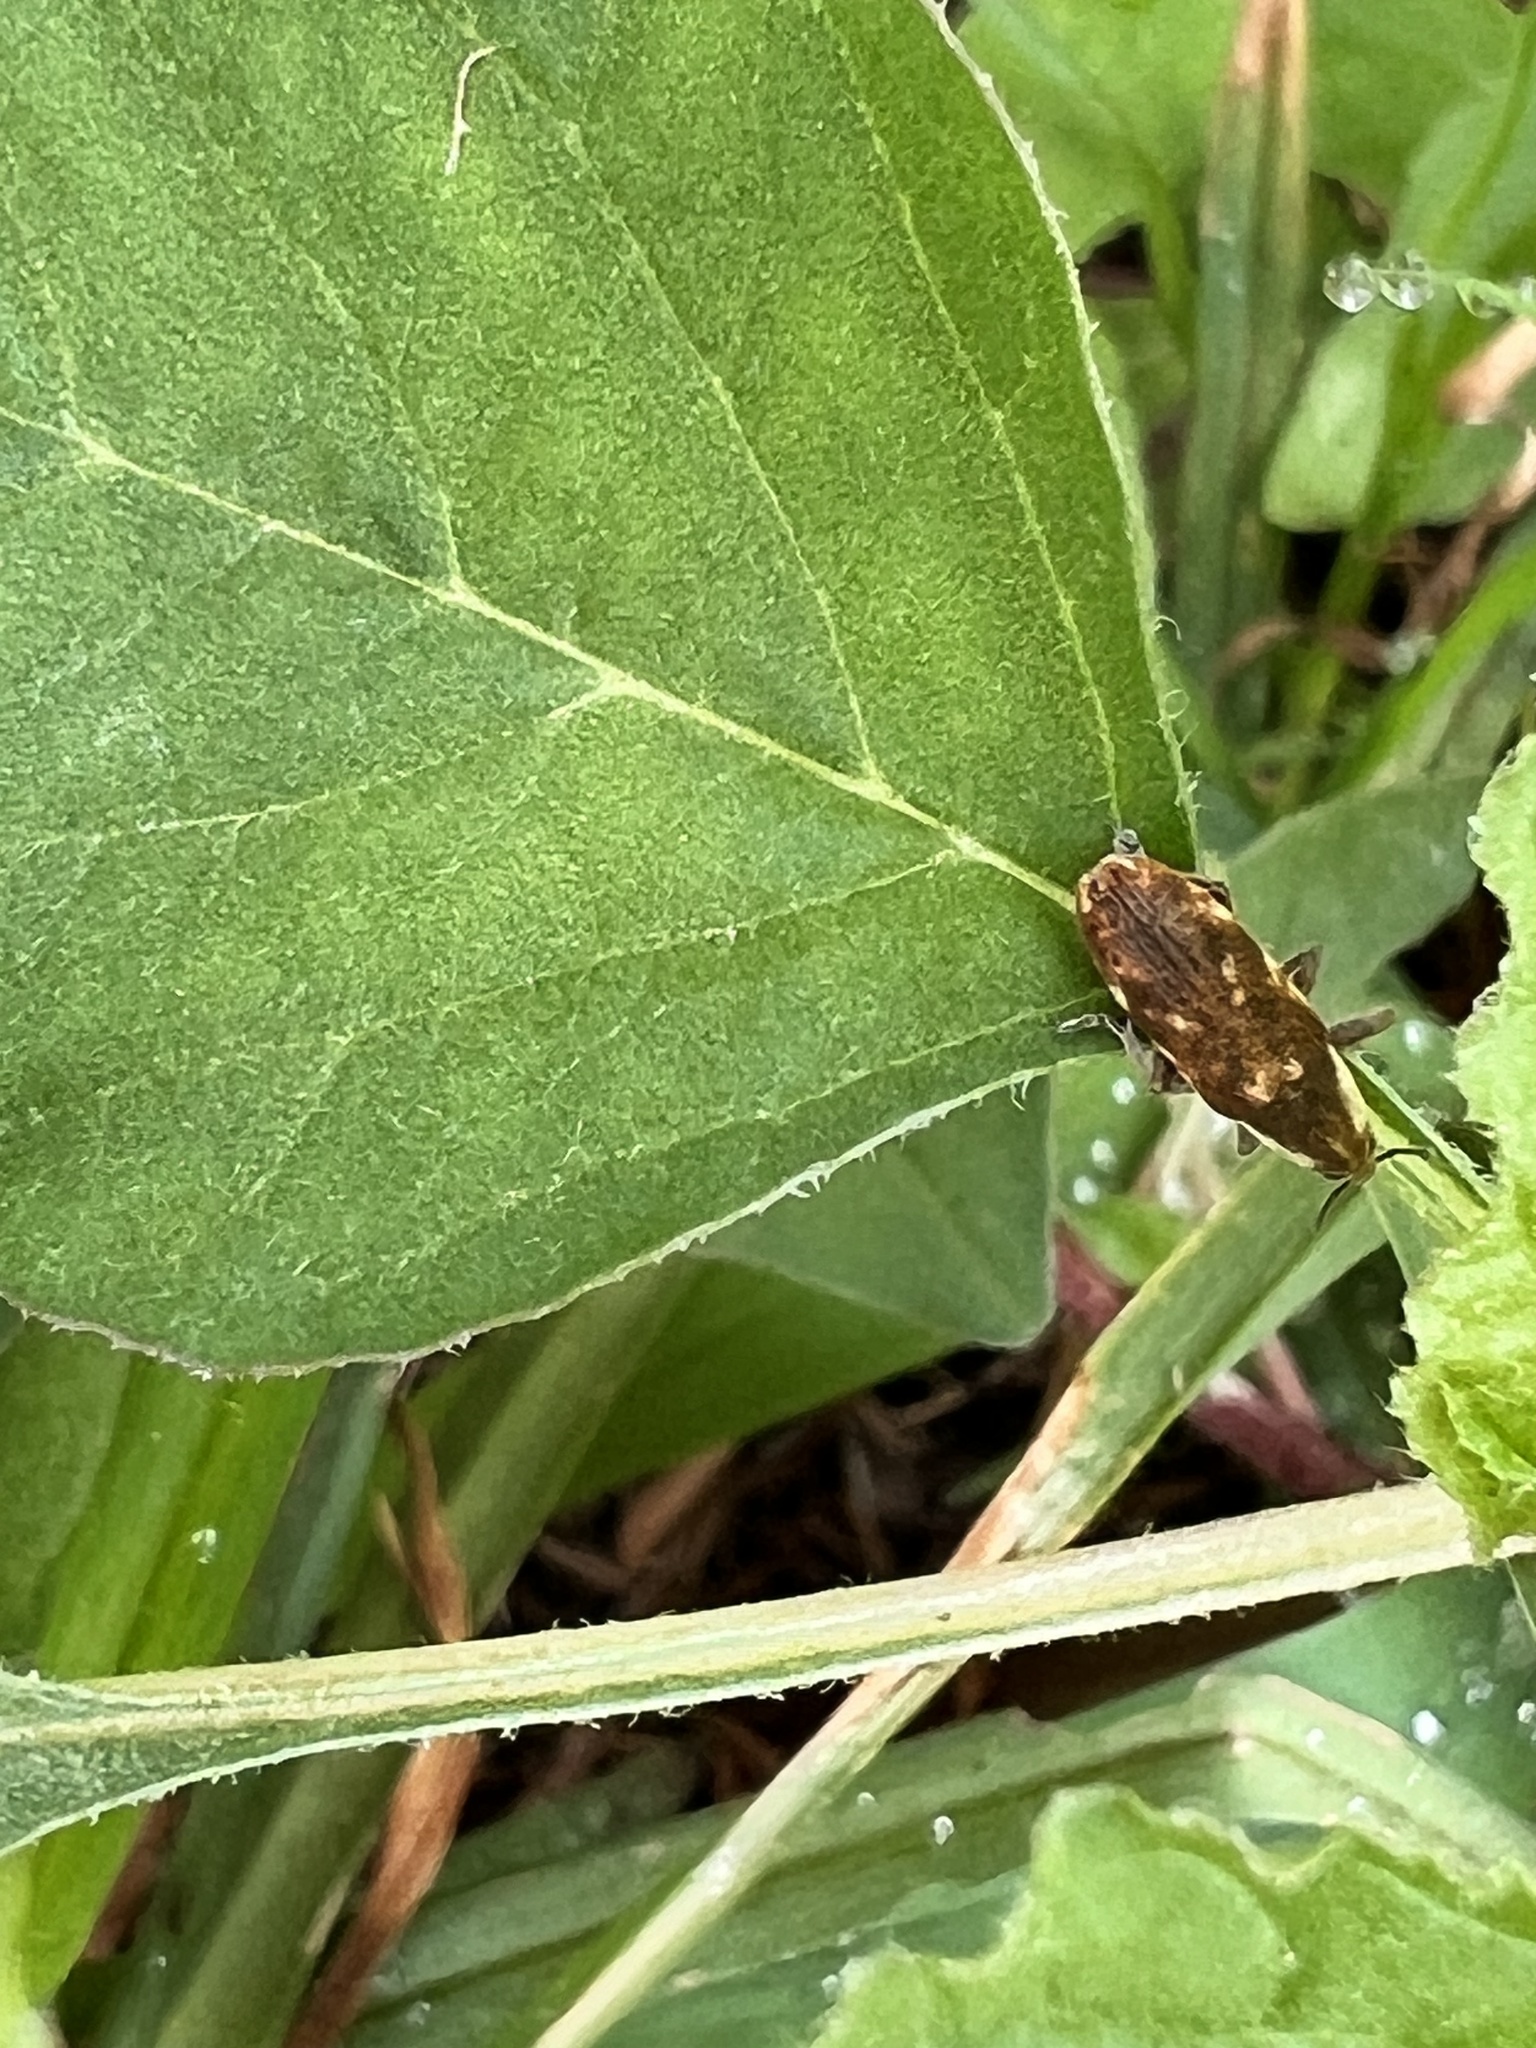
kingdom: Animalia
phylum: Arthropoda
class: Insecta
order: Coleoptera
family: Curculionidae
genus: Hypolixus
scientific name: Hypolixus
